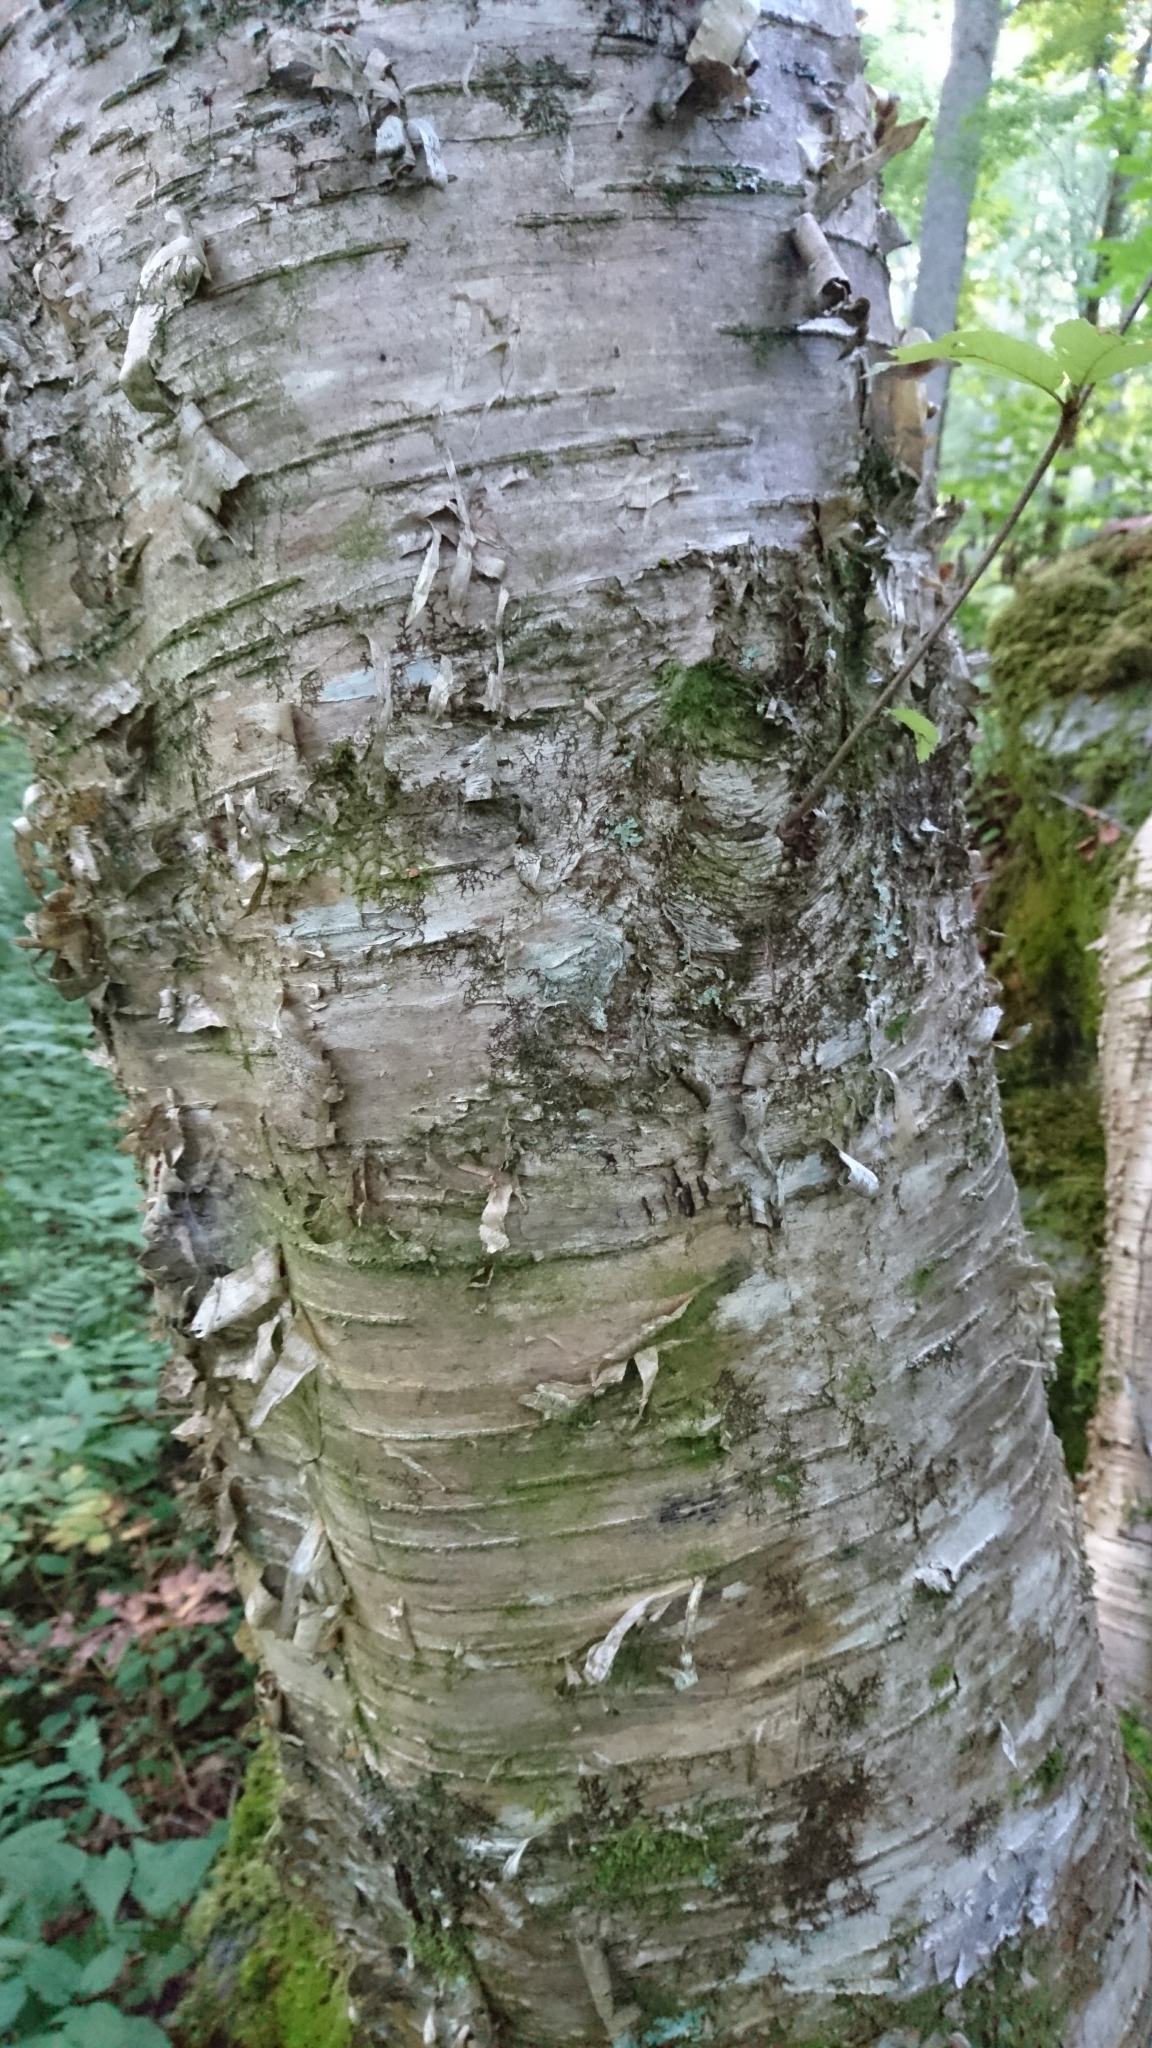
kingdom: Plantae
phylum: Tracheophyta
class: Magnoliopsida
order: Fagales
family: Betulaceae
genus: Betula
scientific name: Betula alleghaniensis
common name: Yellow birch
